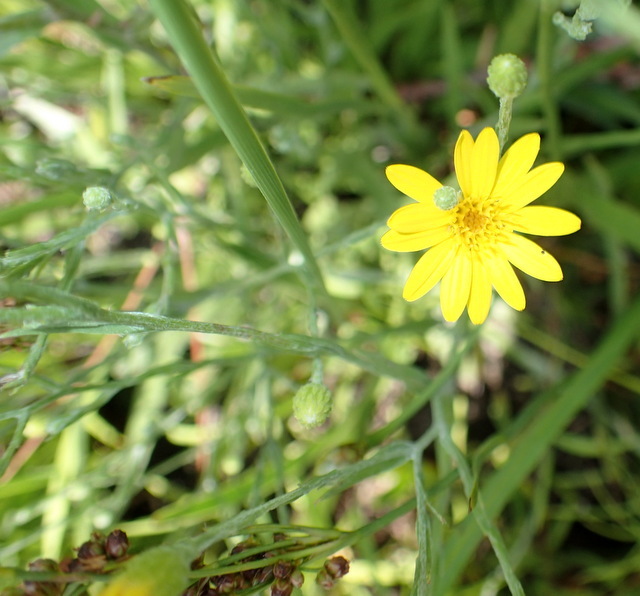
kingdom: Plantae
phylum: Tracheophyta
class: Magnoliopsida
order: Asterales
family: Asteraceae
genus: Pityopsis
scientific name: Pityopsis graminifolia
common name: Grass-leaf golden-aster
